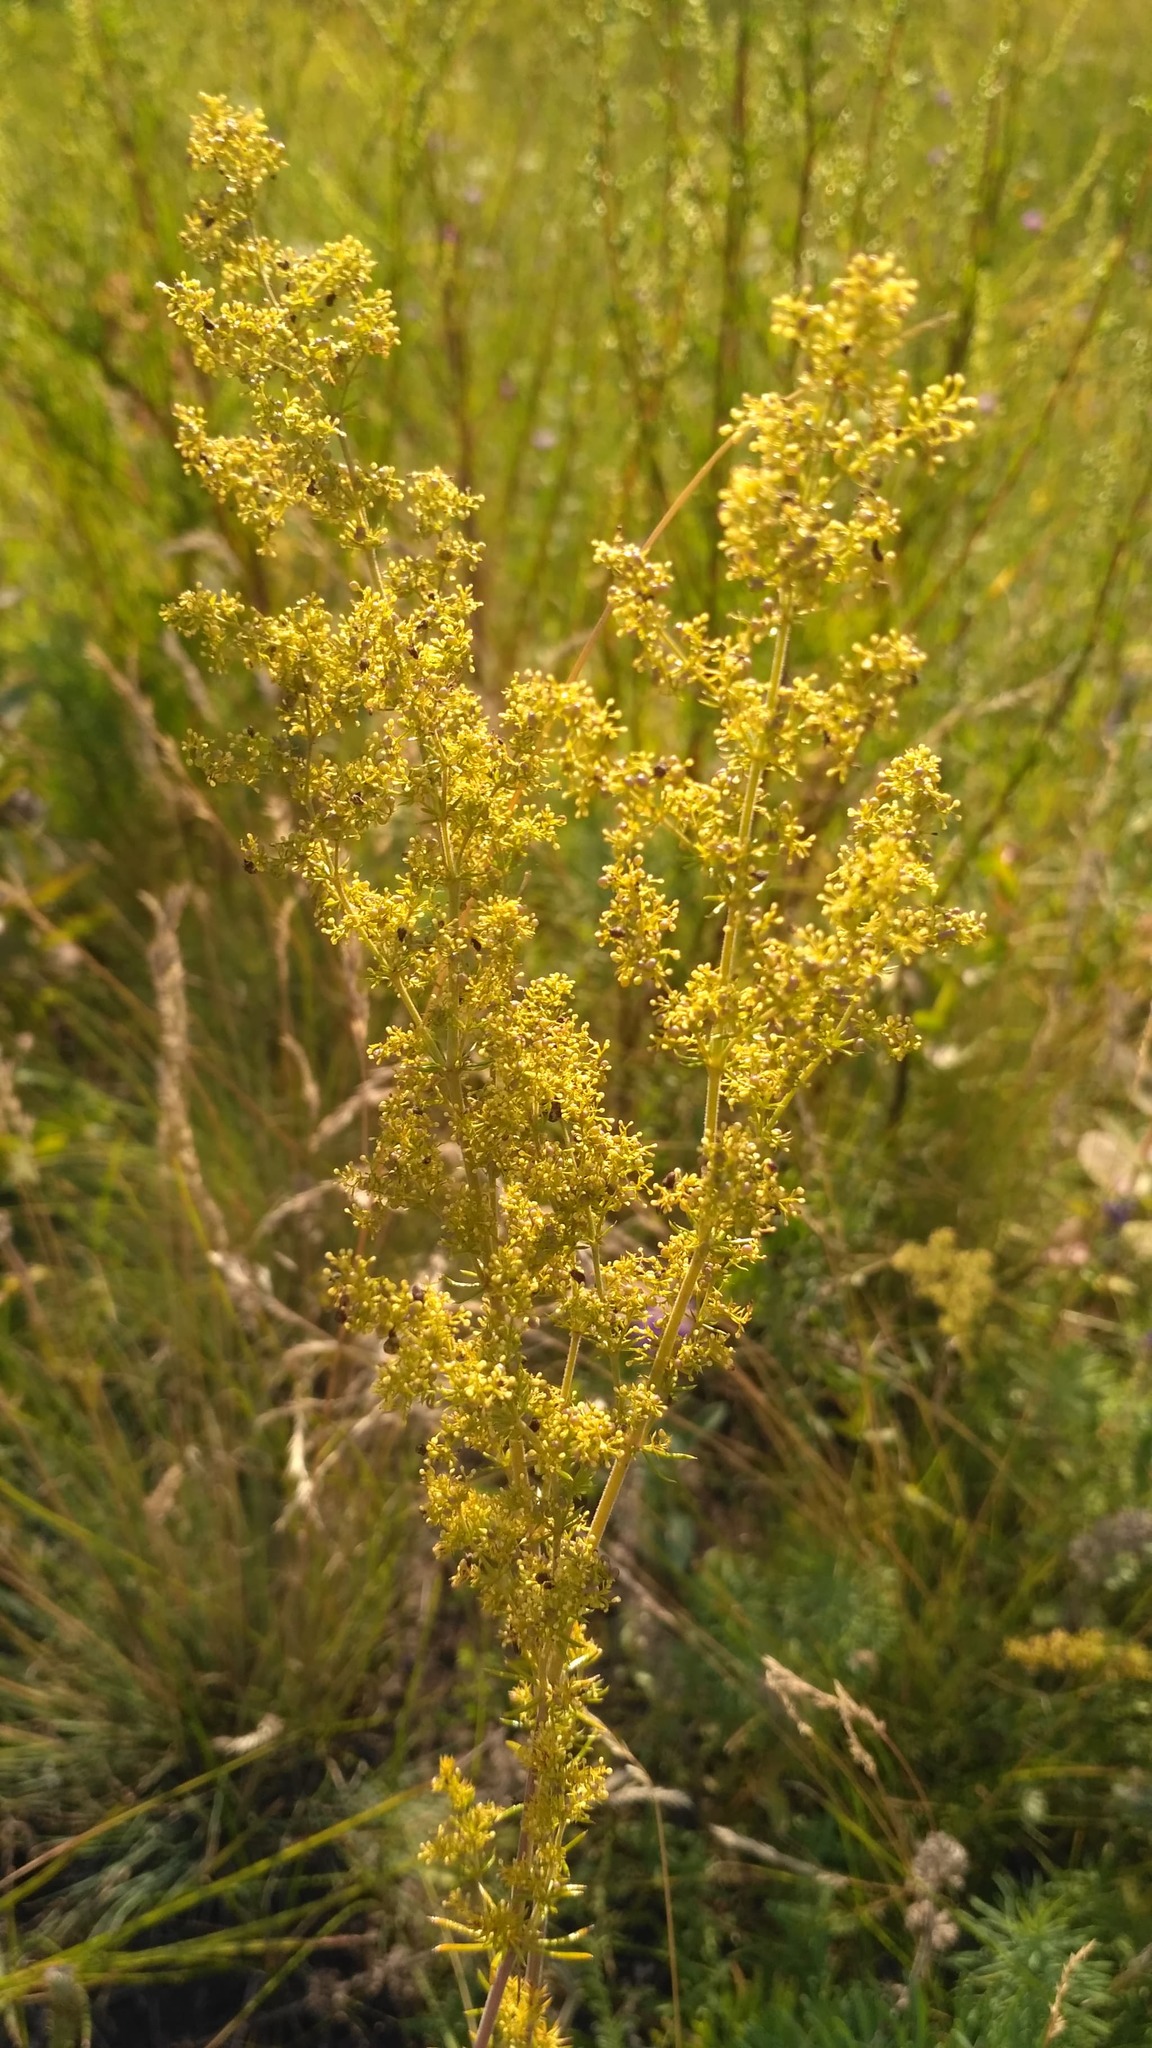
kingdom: Plantae
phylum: Tracheophyta
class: Magnoliopsida
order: Gentianales
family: Rubiaceae
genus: Galium
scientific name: Galium verum
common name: Lady's bedstraw
